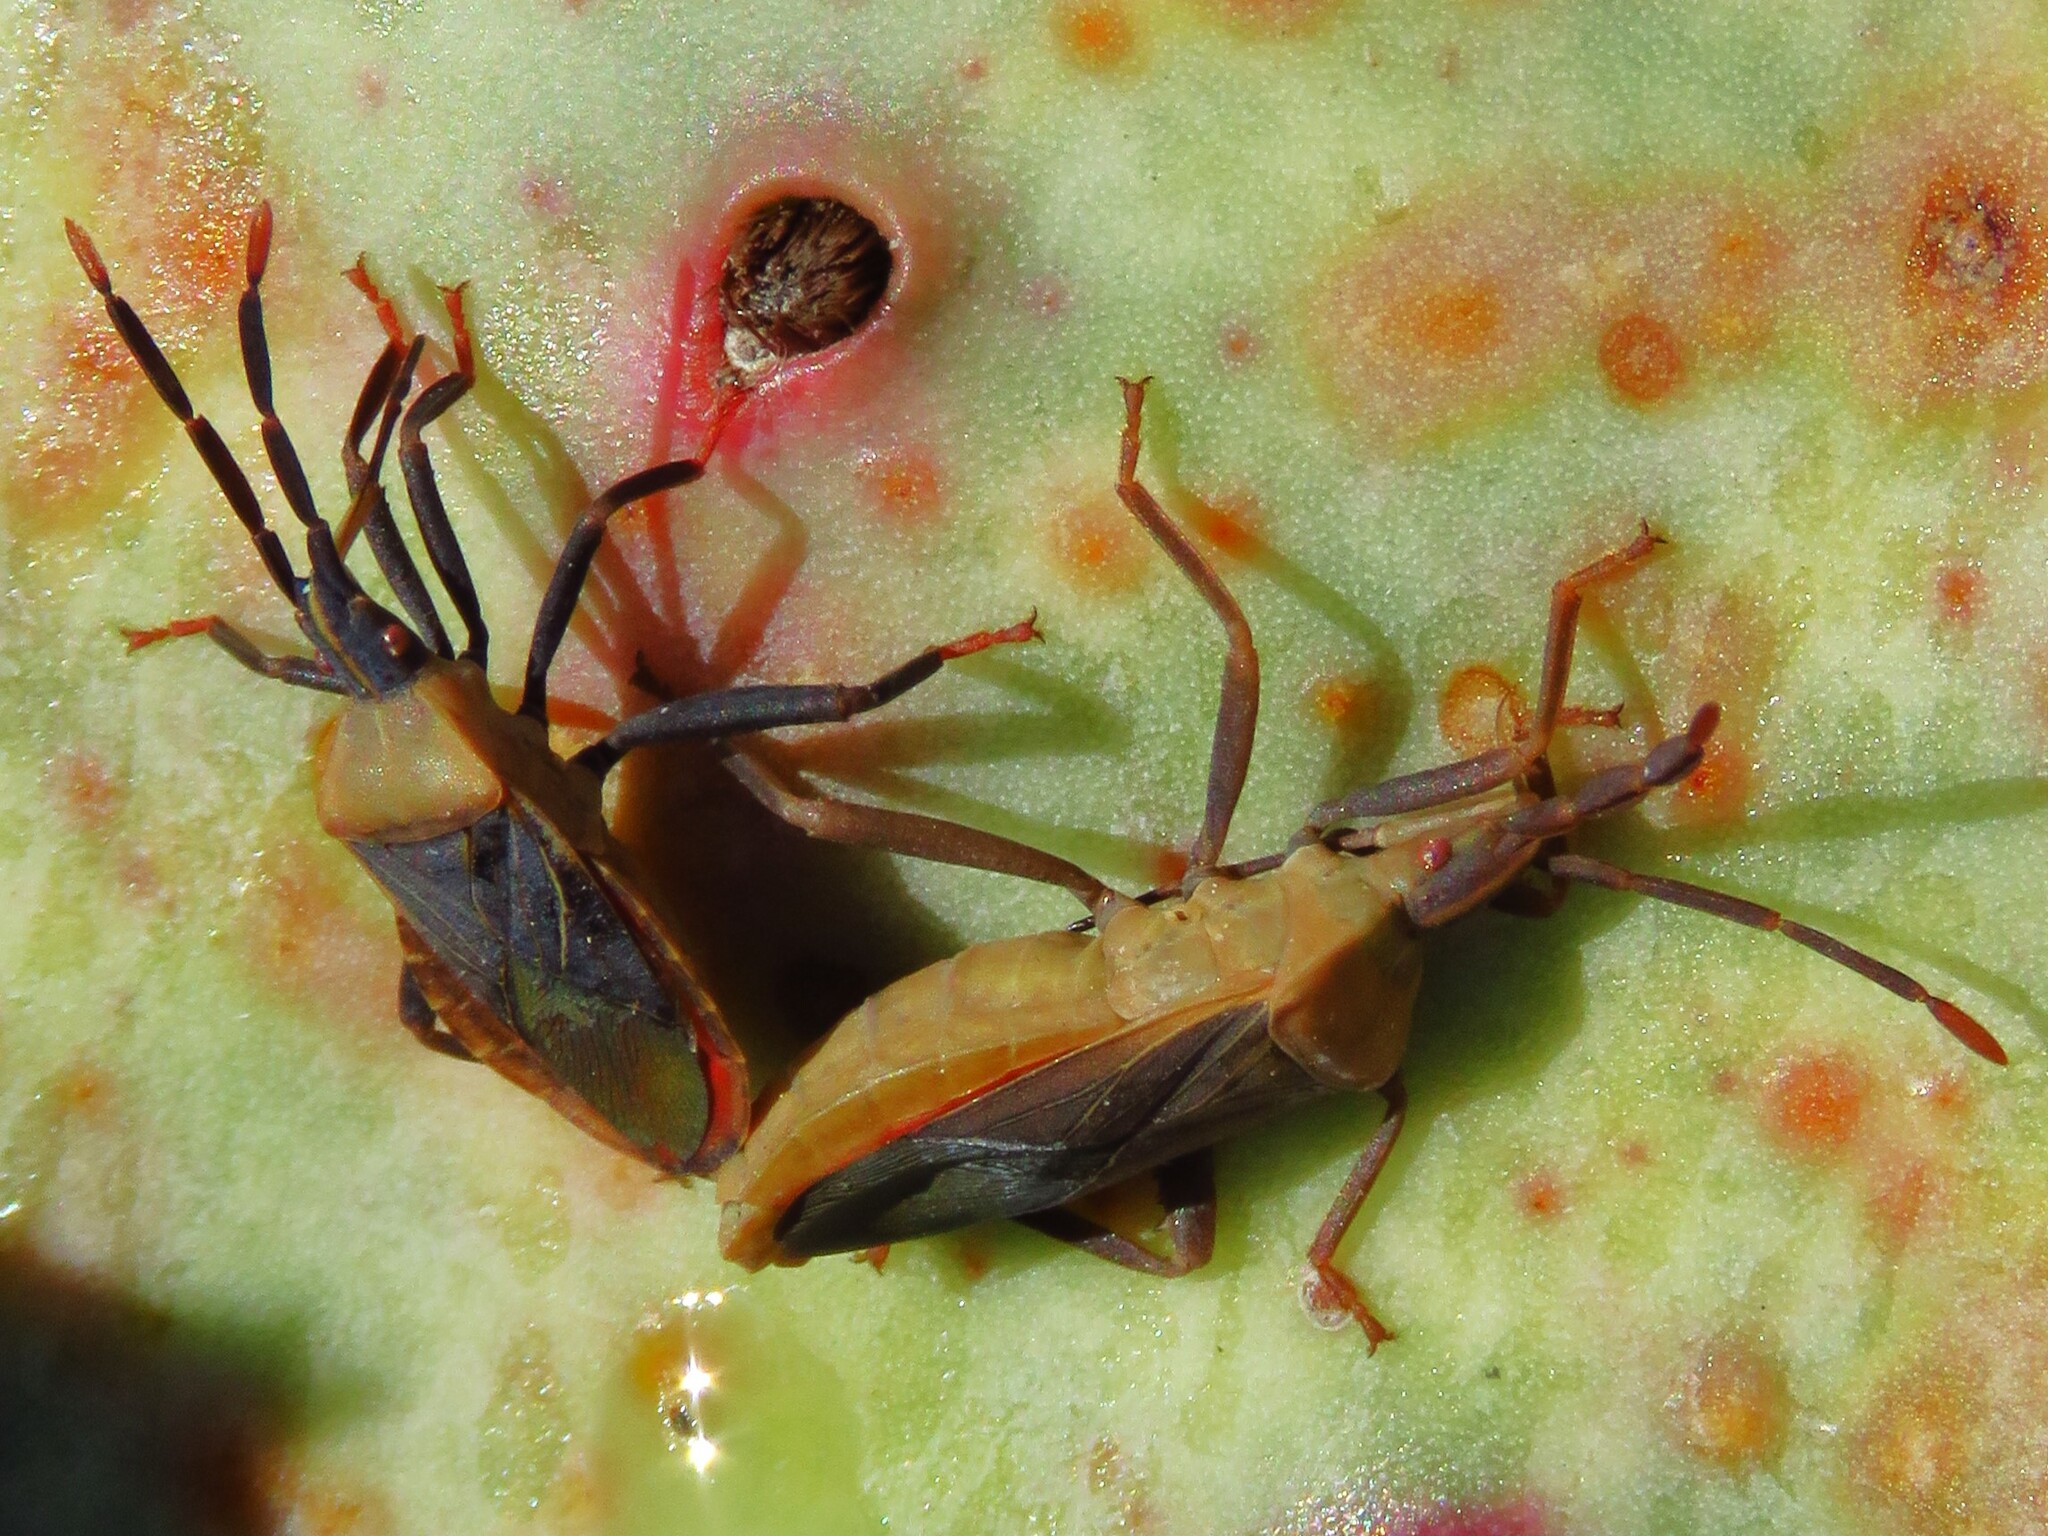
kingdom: Animalia
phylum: Arthropoda
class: Insecta
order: Hemiptera
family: Coreidae
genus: Chelinidea
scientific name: Chelinidea vittiger
